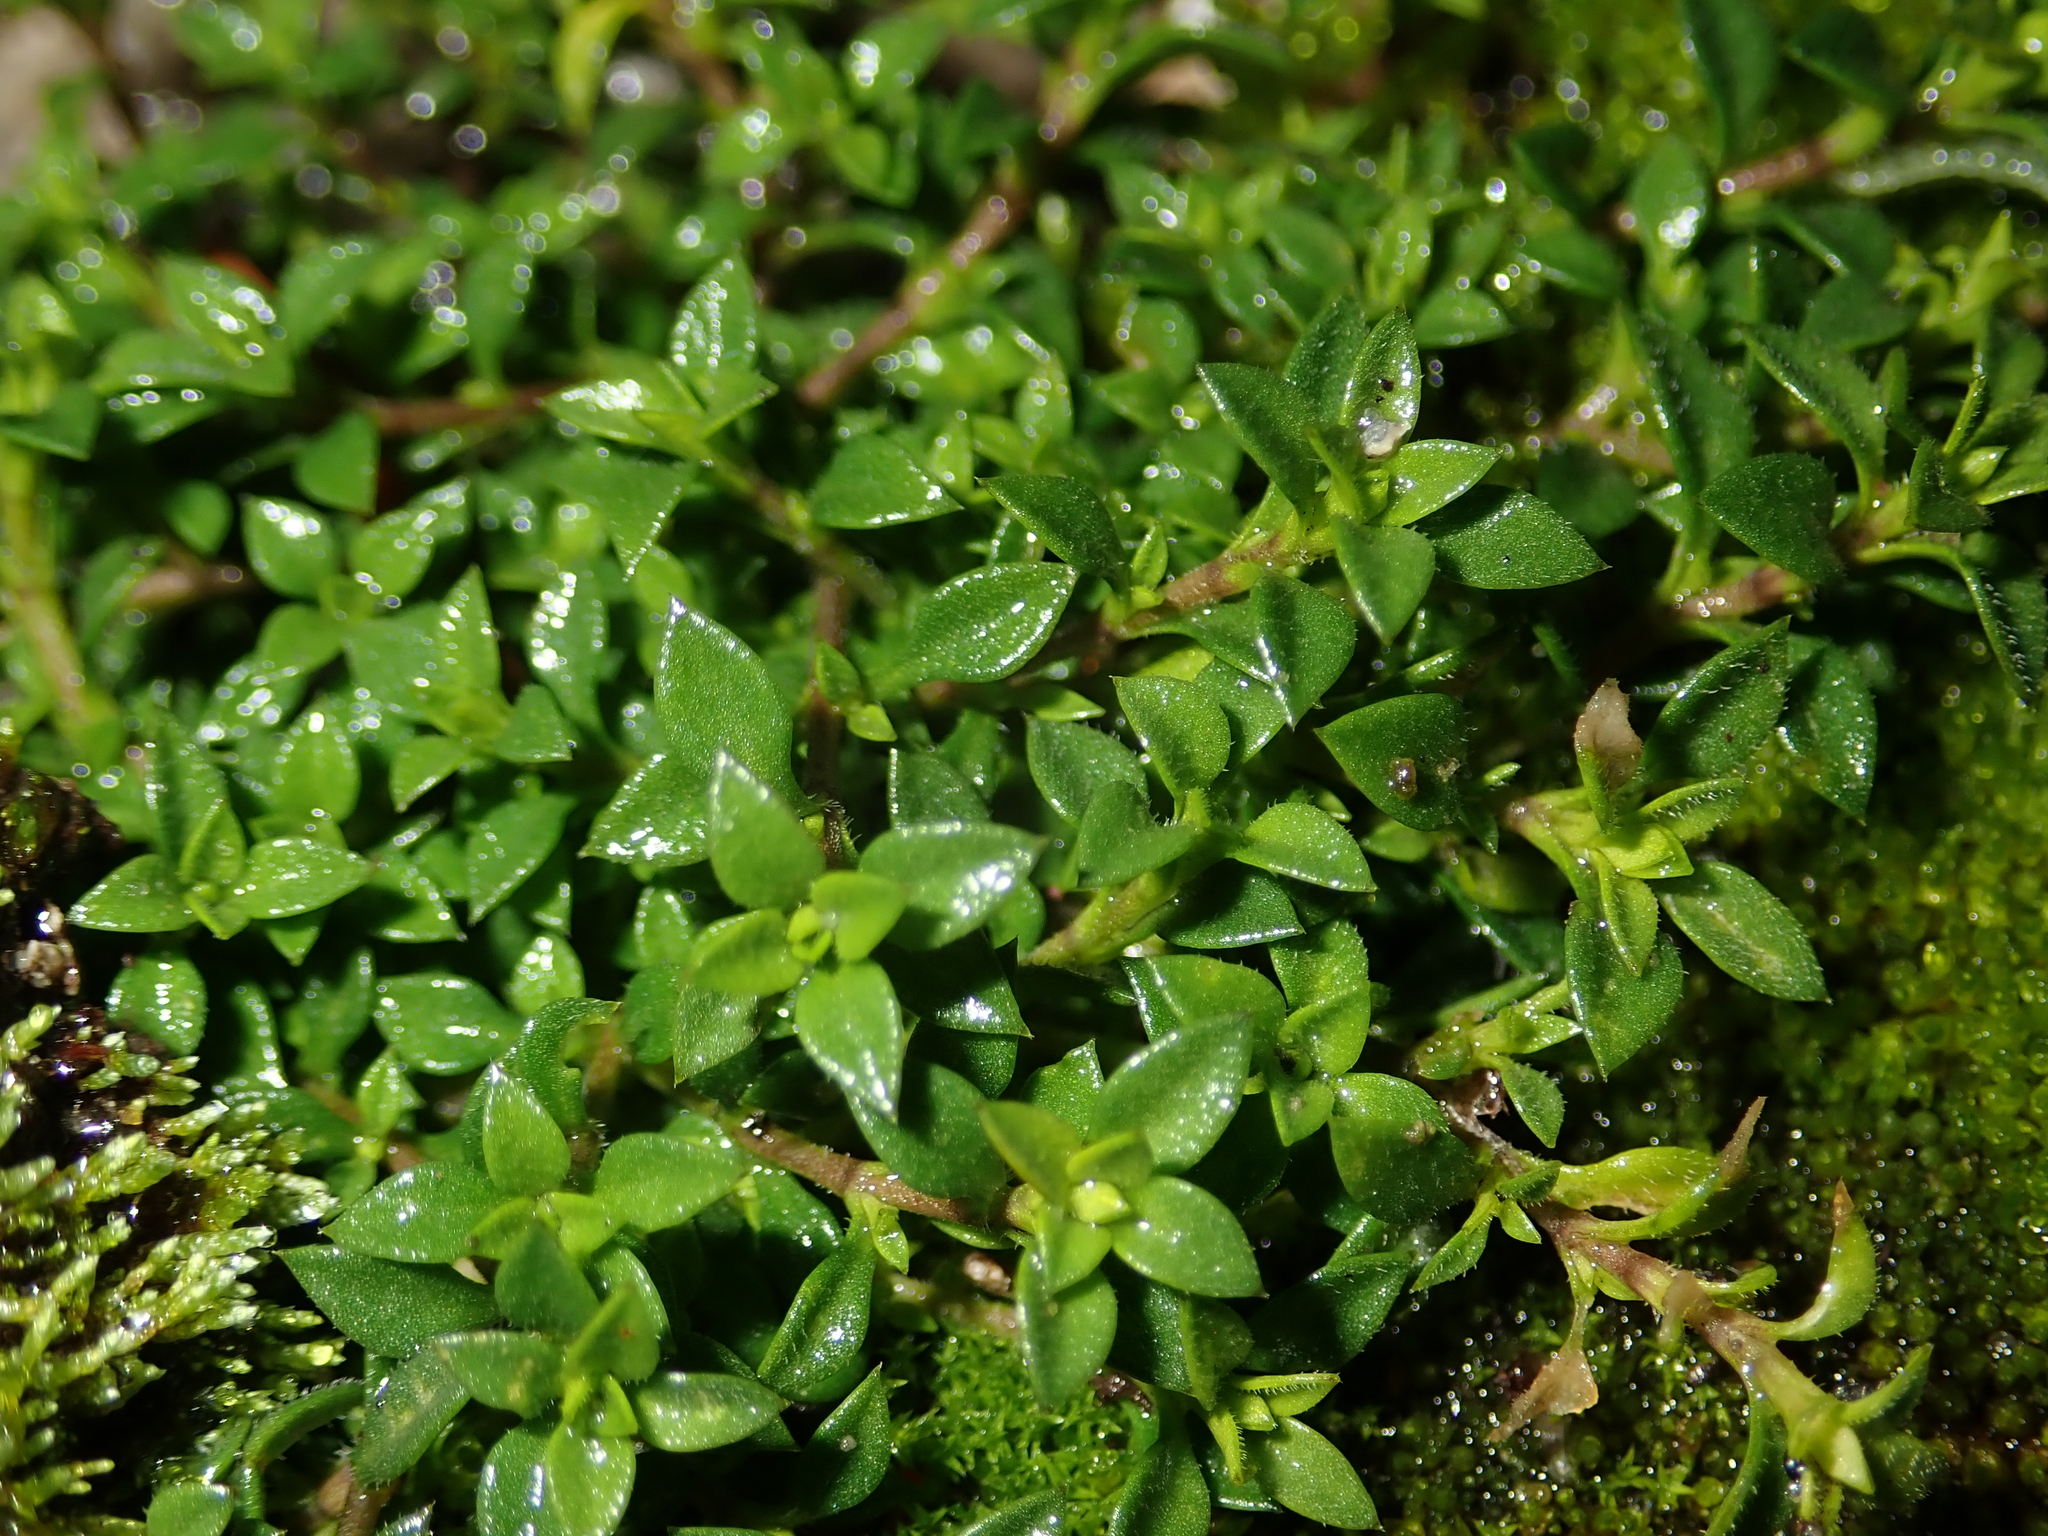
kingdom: Plantae
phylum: Tracheophyta
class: Magnoliopsida
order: Caryophyllales
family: Caryophyllaceae
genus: Arenaria
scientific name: Arenaria serpyllifolia
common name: Thyme-leaved sandwort
